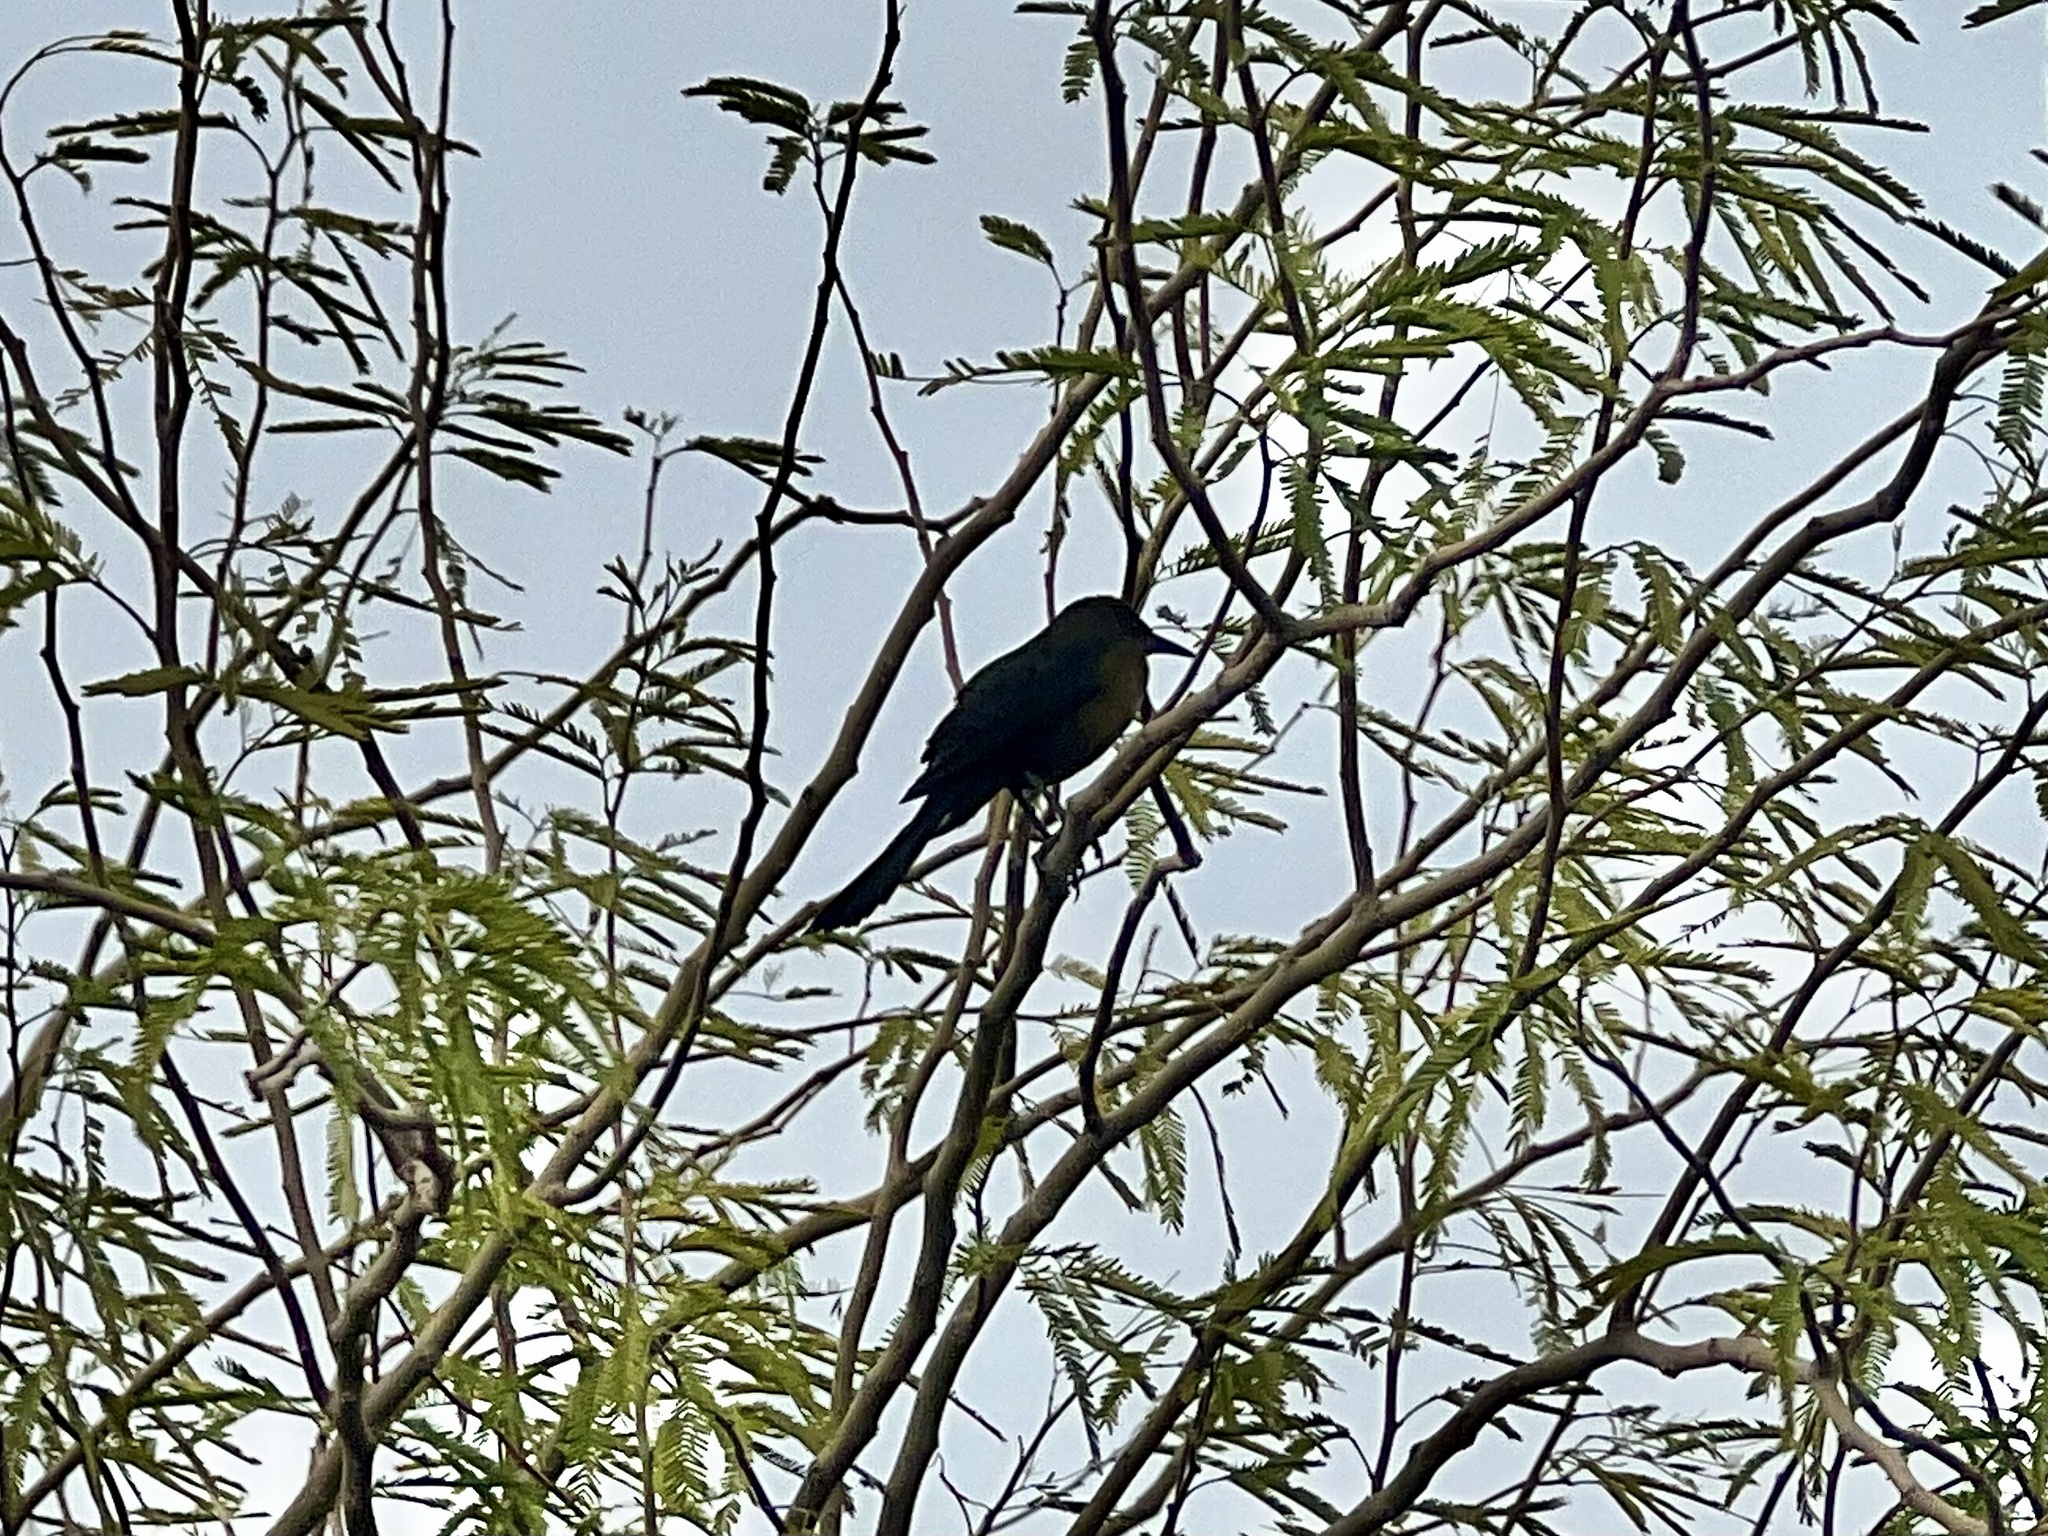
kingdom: Animalia
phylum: Chordata
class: Aves
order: Passeriformes
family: Icteridae
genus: Quiscalus
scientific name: Quiscalus mexicanus
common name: Great-tailed grackle
